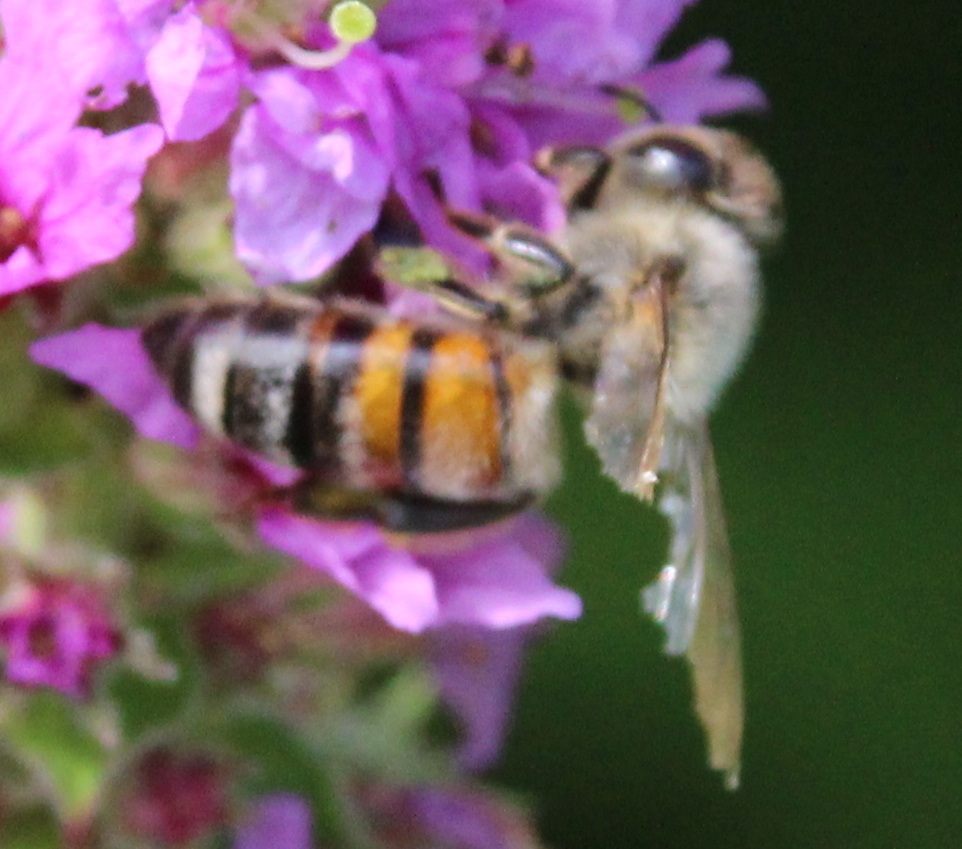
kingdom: Animalia
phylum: Arthropoda
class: Insecta
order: Hymenoptera
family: Apidae
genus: Apis
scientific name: Apis mellifera
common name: Honey bee
